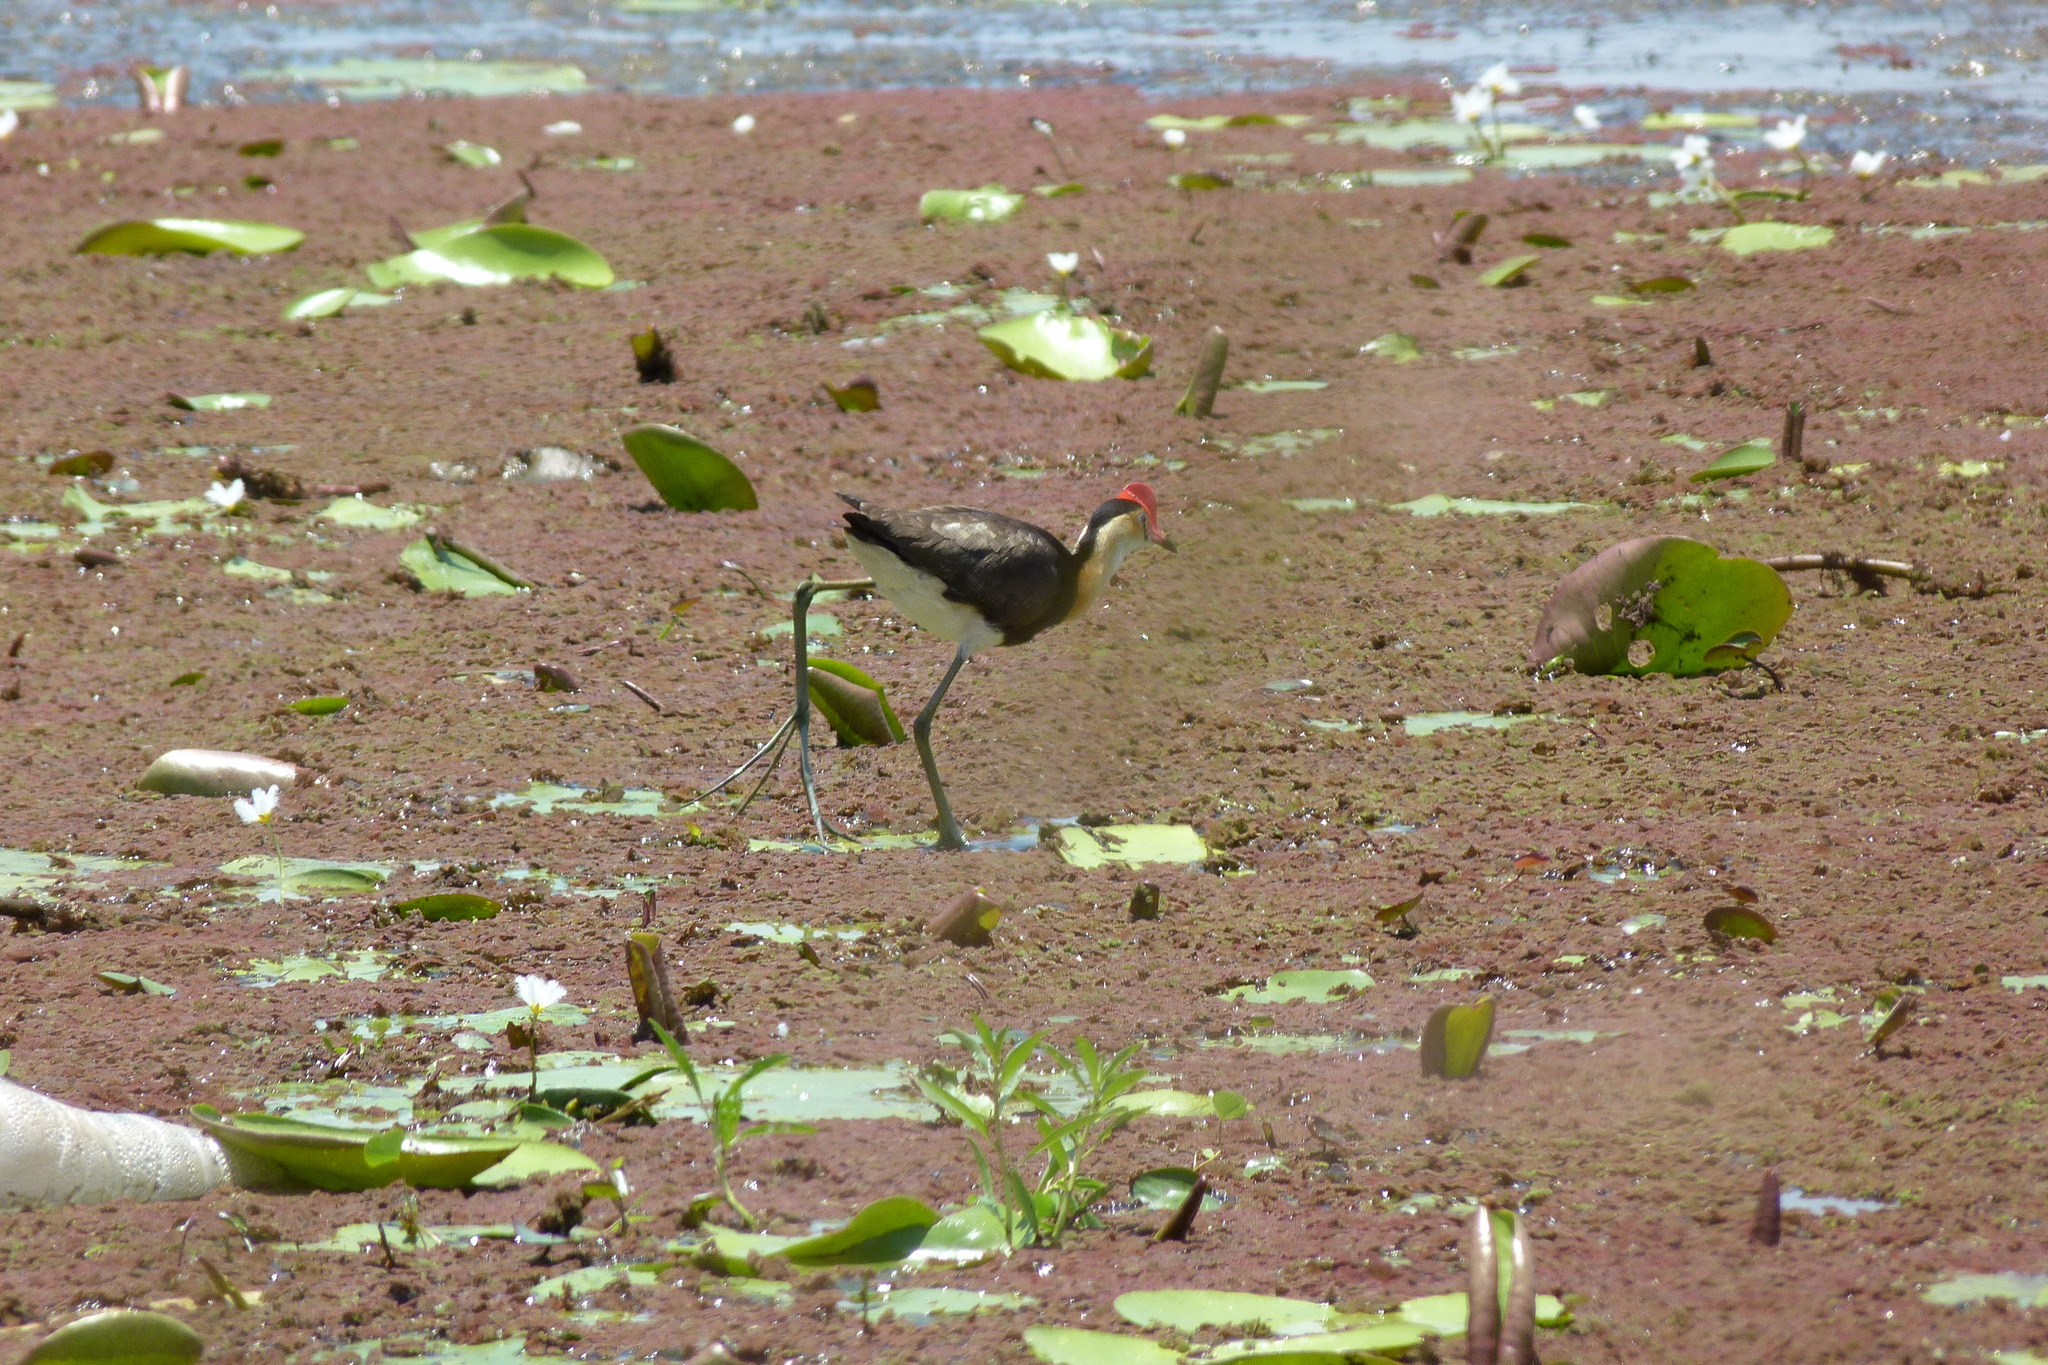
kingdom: Animalia
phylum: Chordata
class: Aves
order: Charadriiformes
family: Jacanidae
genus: Irediparra
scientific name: Irediparra gallinacea
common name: Comb-crested jacana
